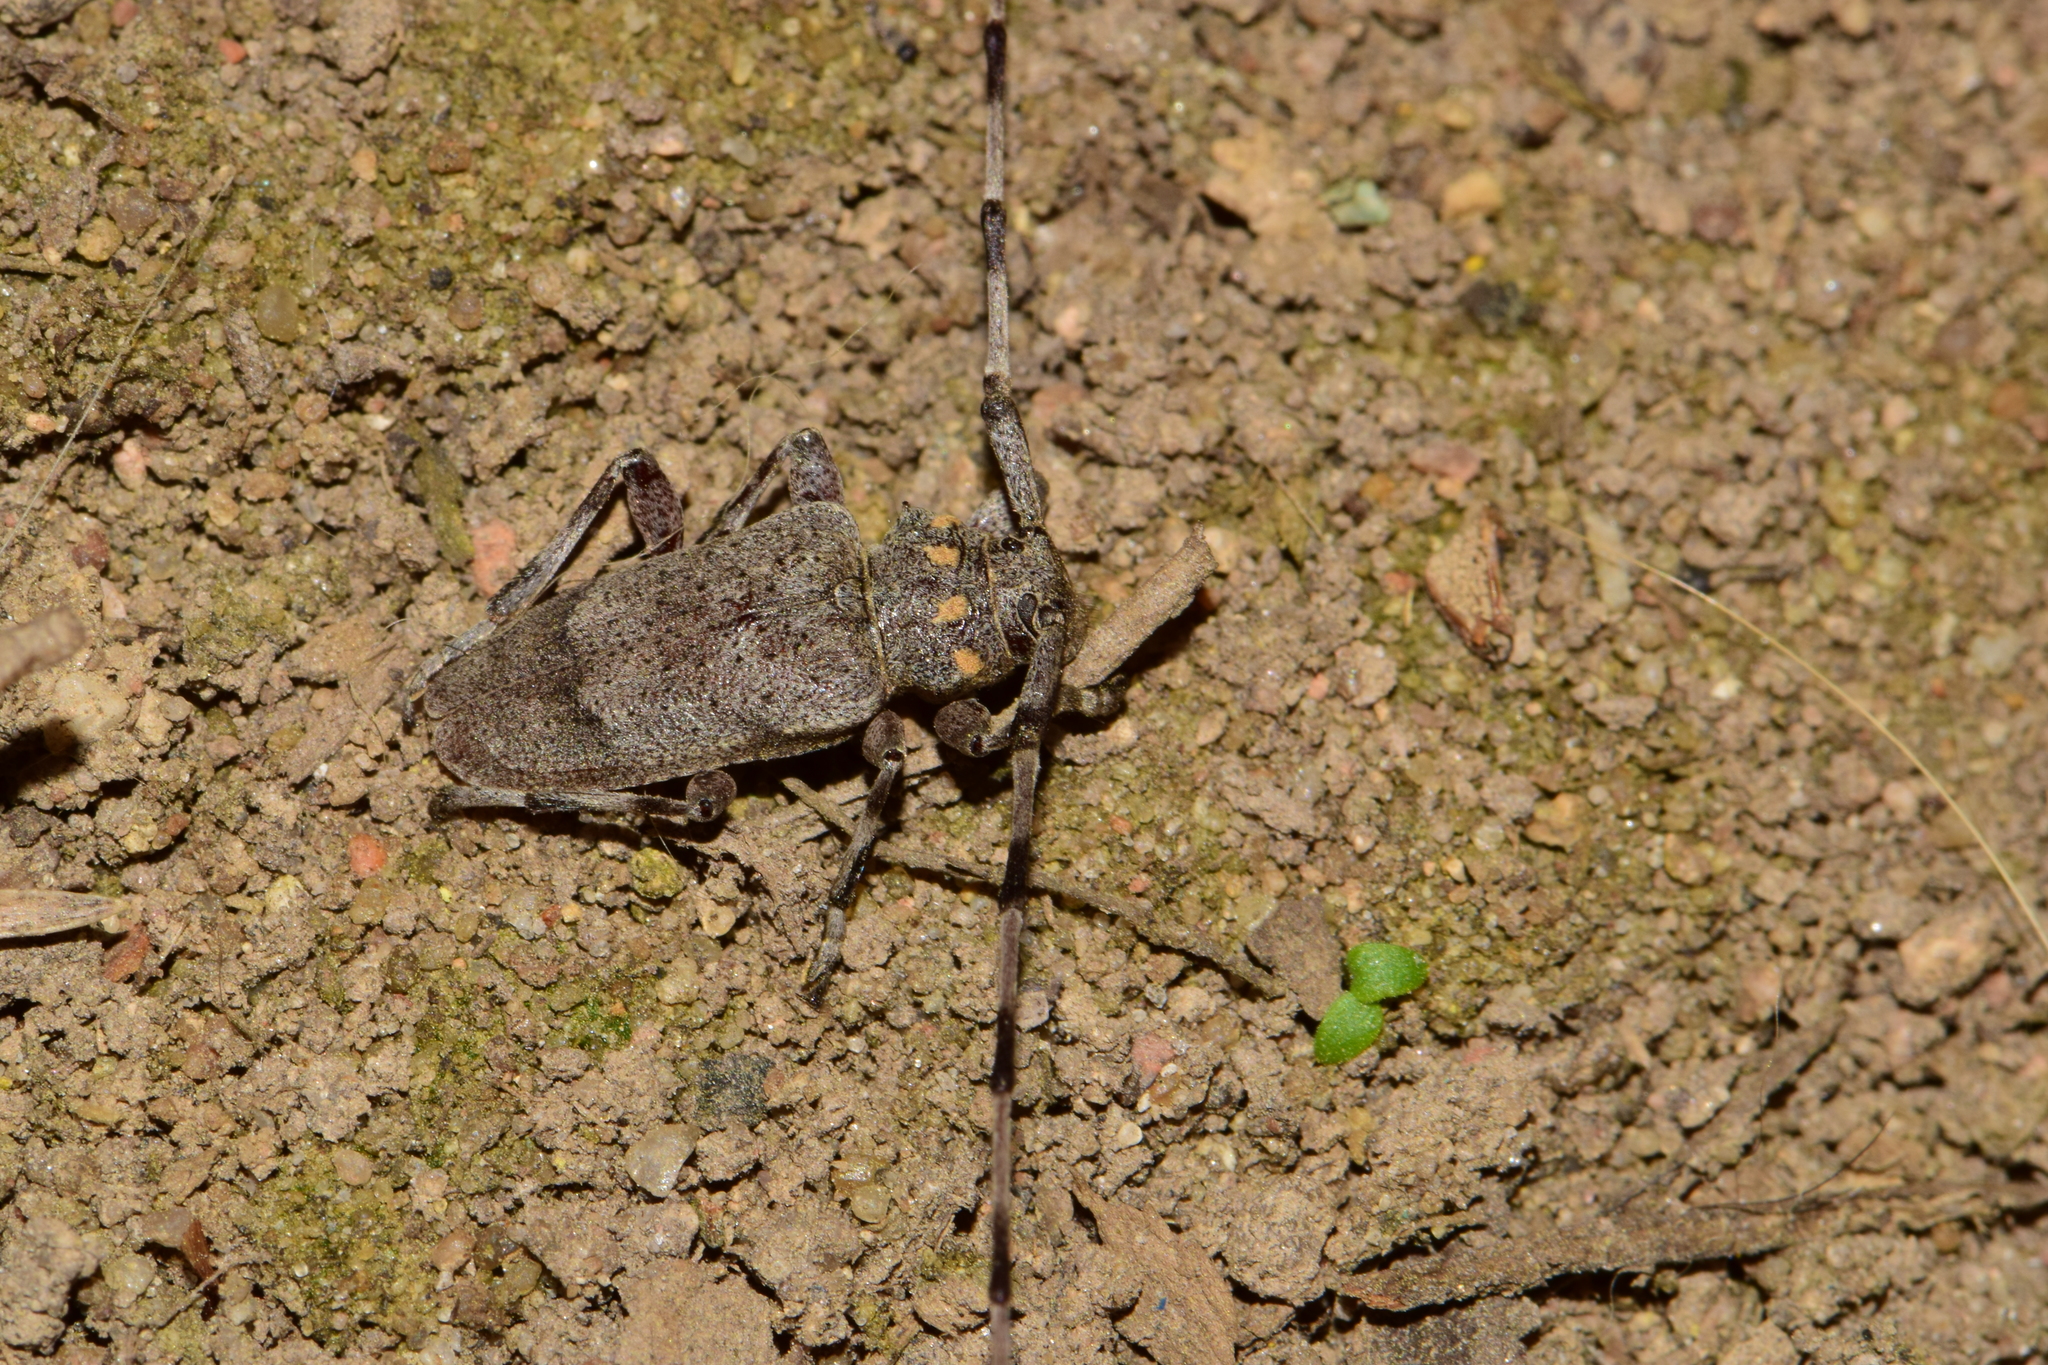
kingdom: Animalia
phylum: Arthropoda
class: Insecta
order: Coleoptera
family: Cerambycidae
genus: Acanthocinus
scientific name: Acanthocinus aedilis
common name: Timberman beetle
